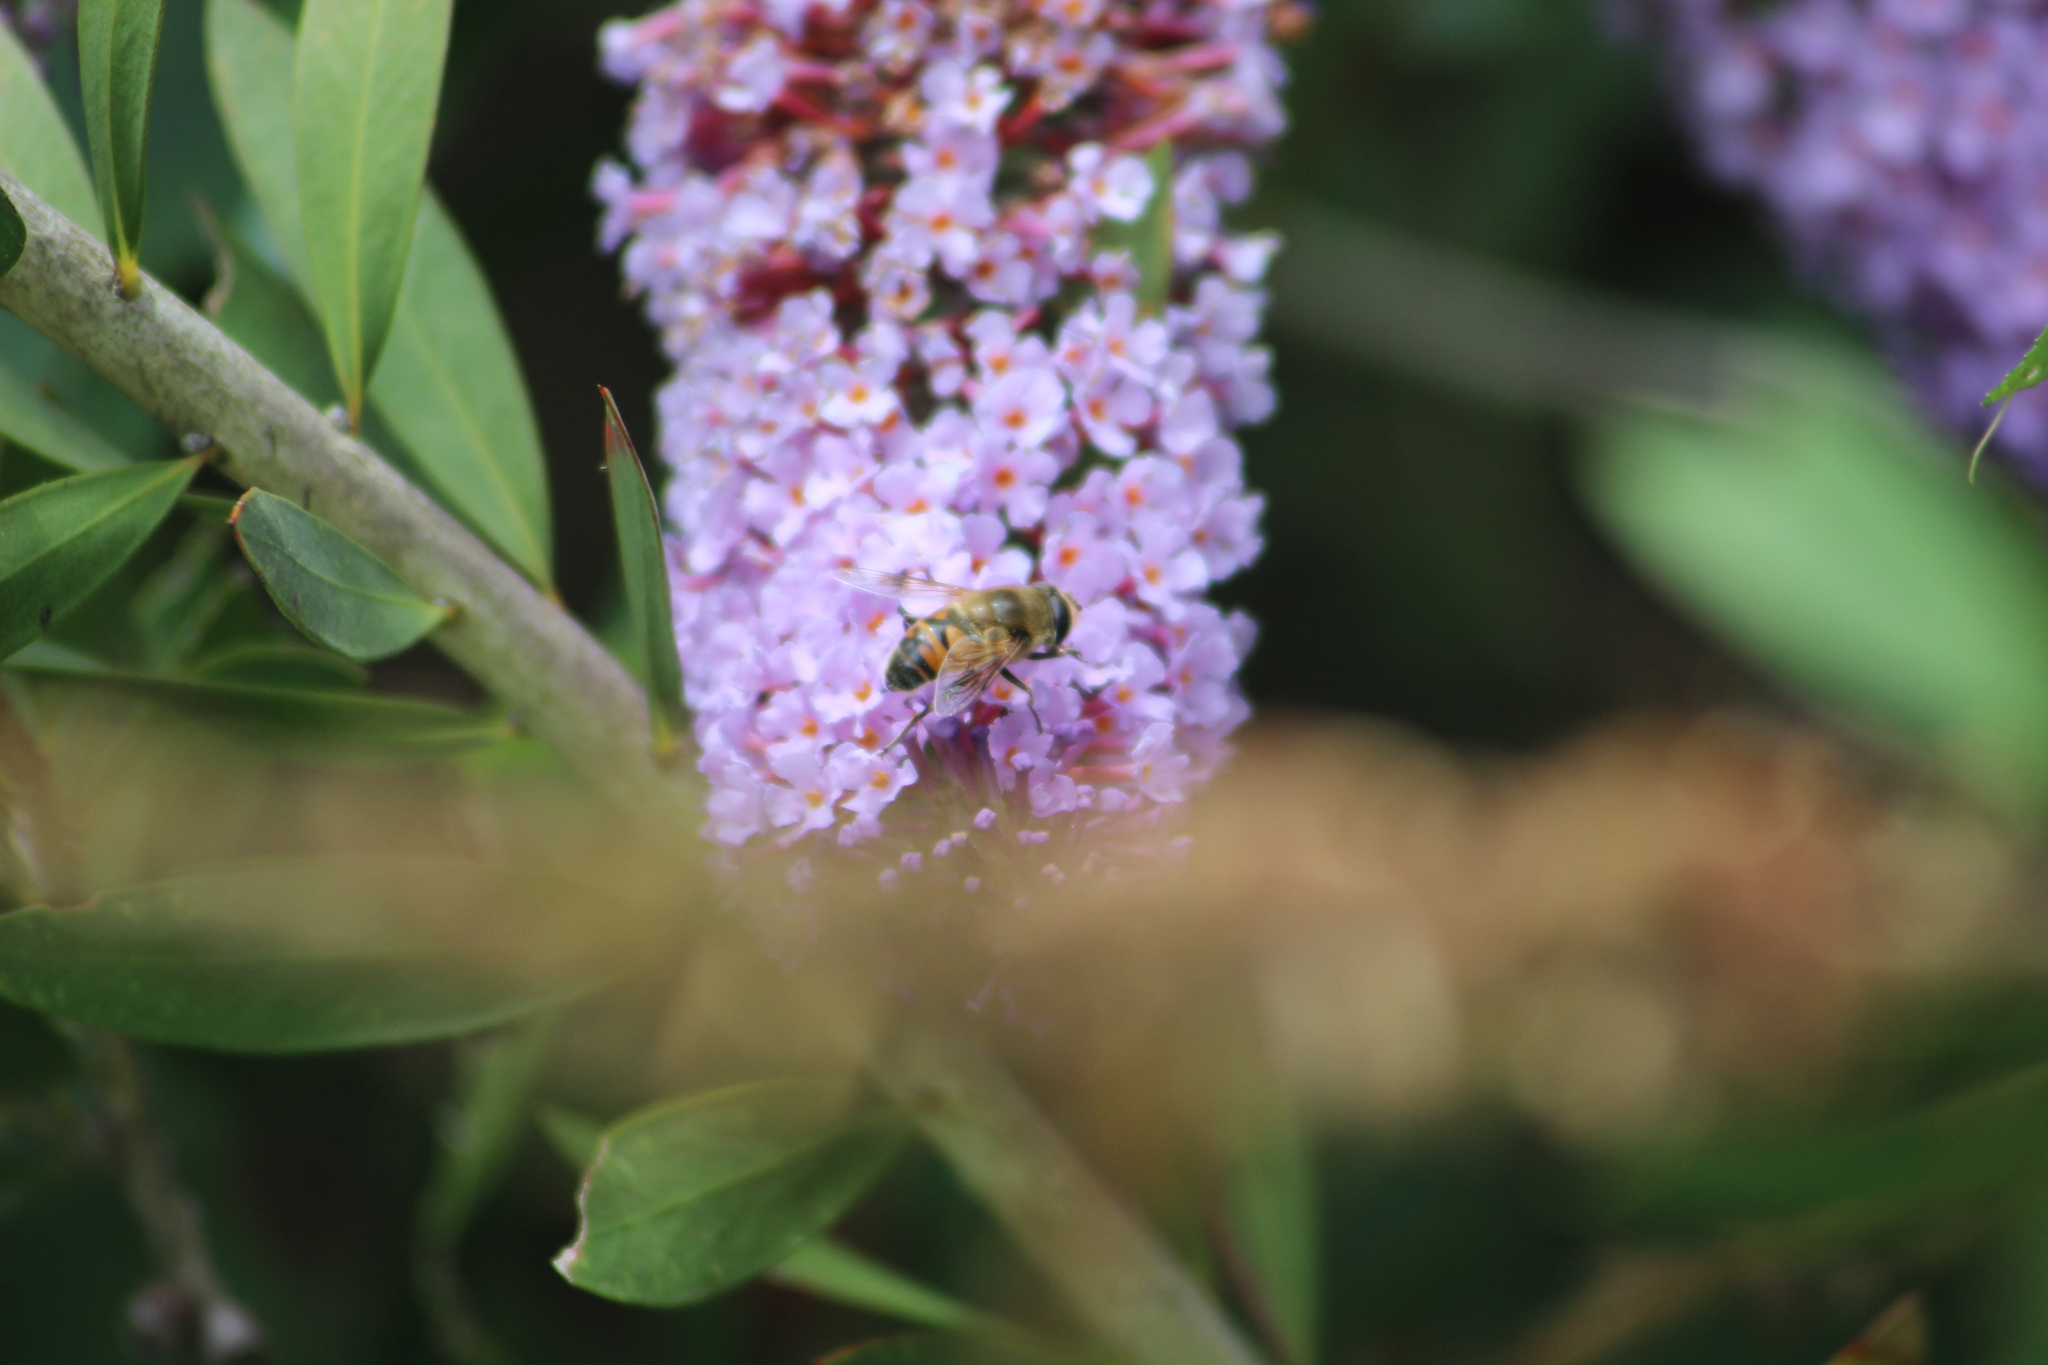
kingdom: Animalia
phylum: Arthropoda
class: Insecta
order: Diptera
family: Syrphidae
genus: Eristalis
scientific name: Eristalis tenax
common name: Drone fly
